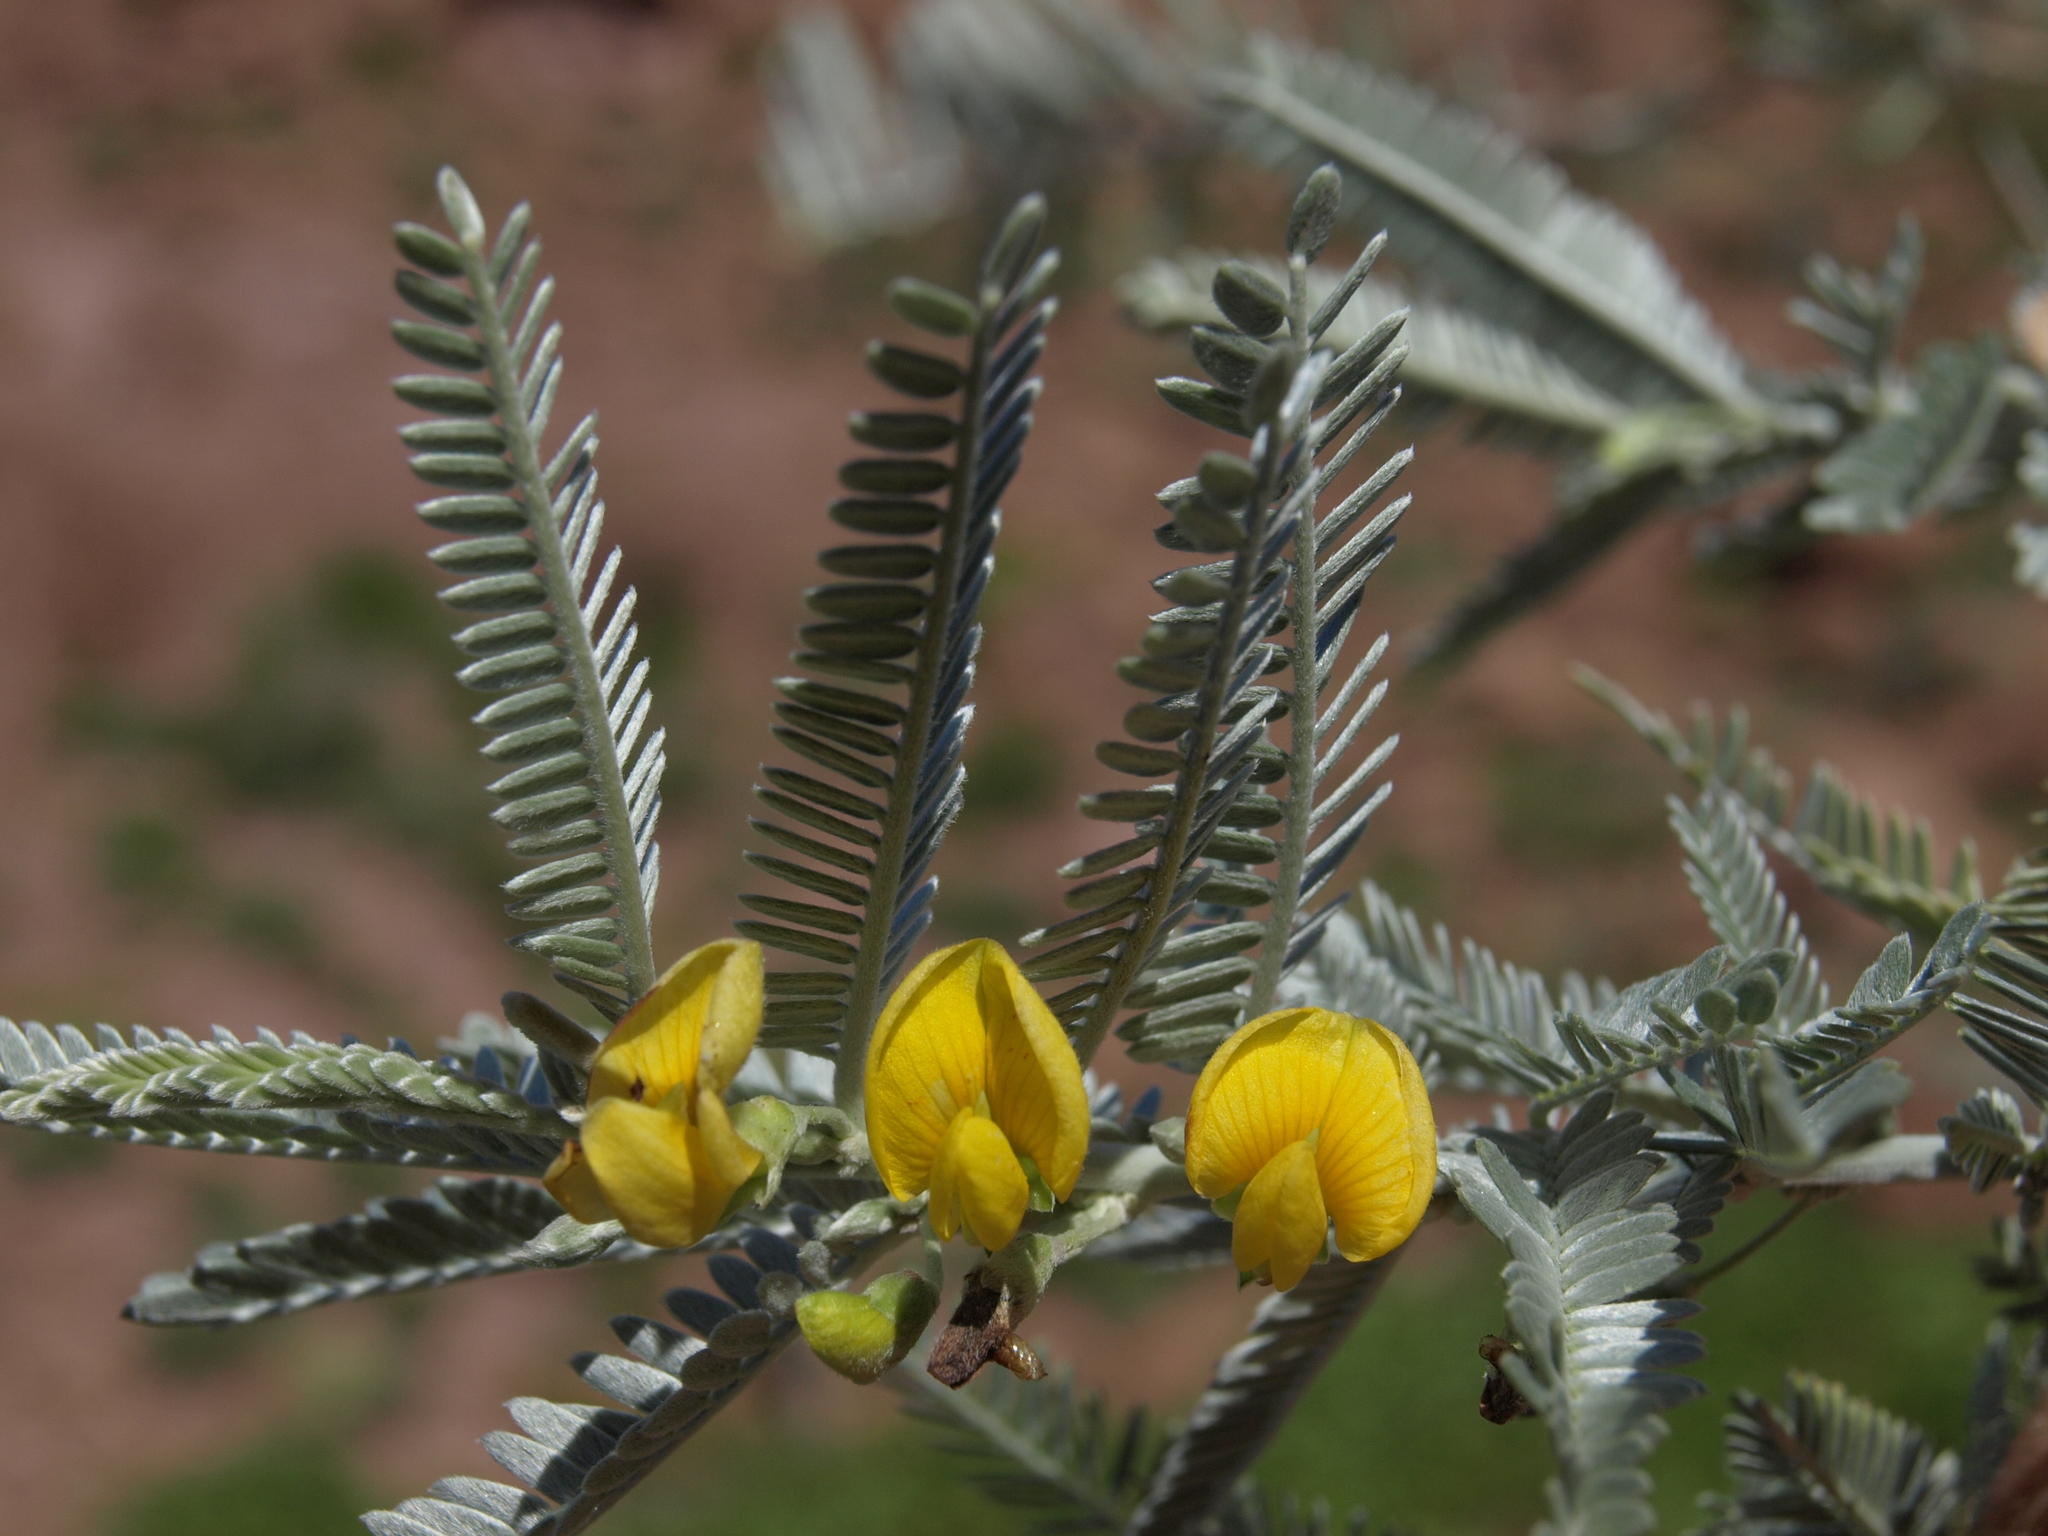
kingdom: Plantae
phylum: Tracheophyta
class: Magnoliopsida
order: Fabales
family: Fabaceae
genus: Ctenodon
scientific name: Ctenodon niveus
